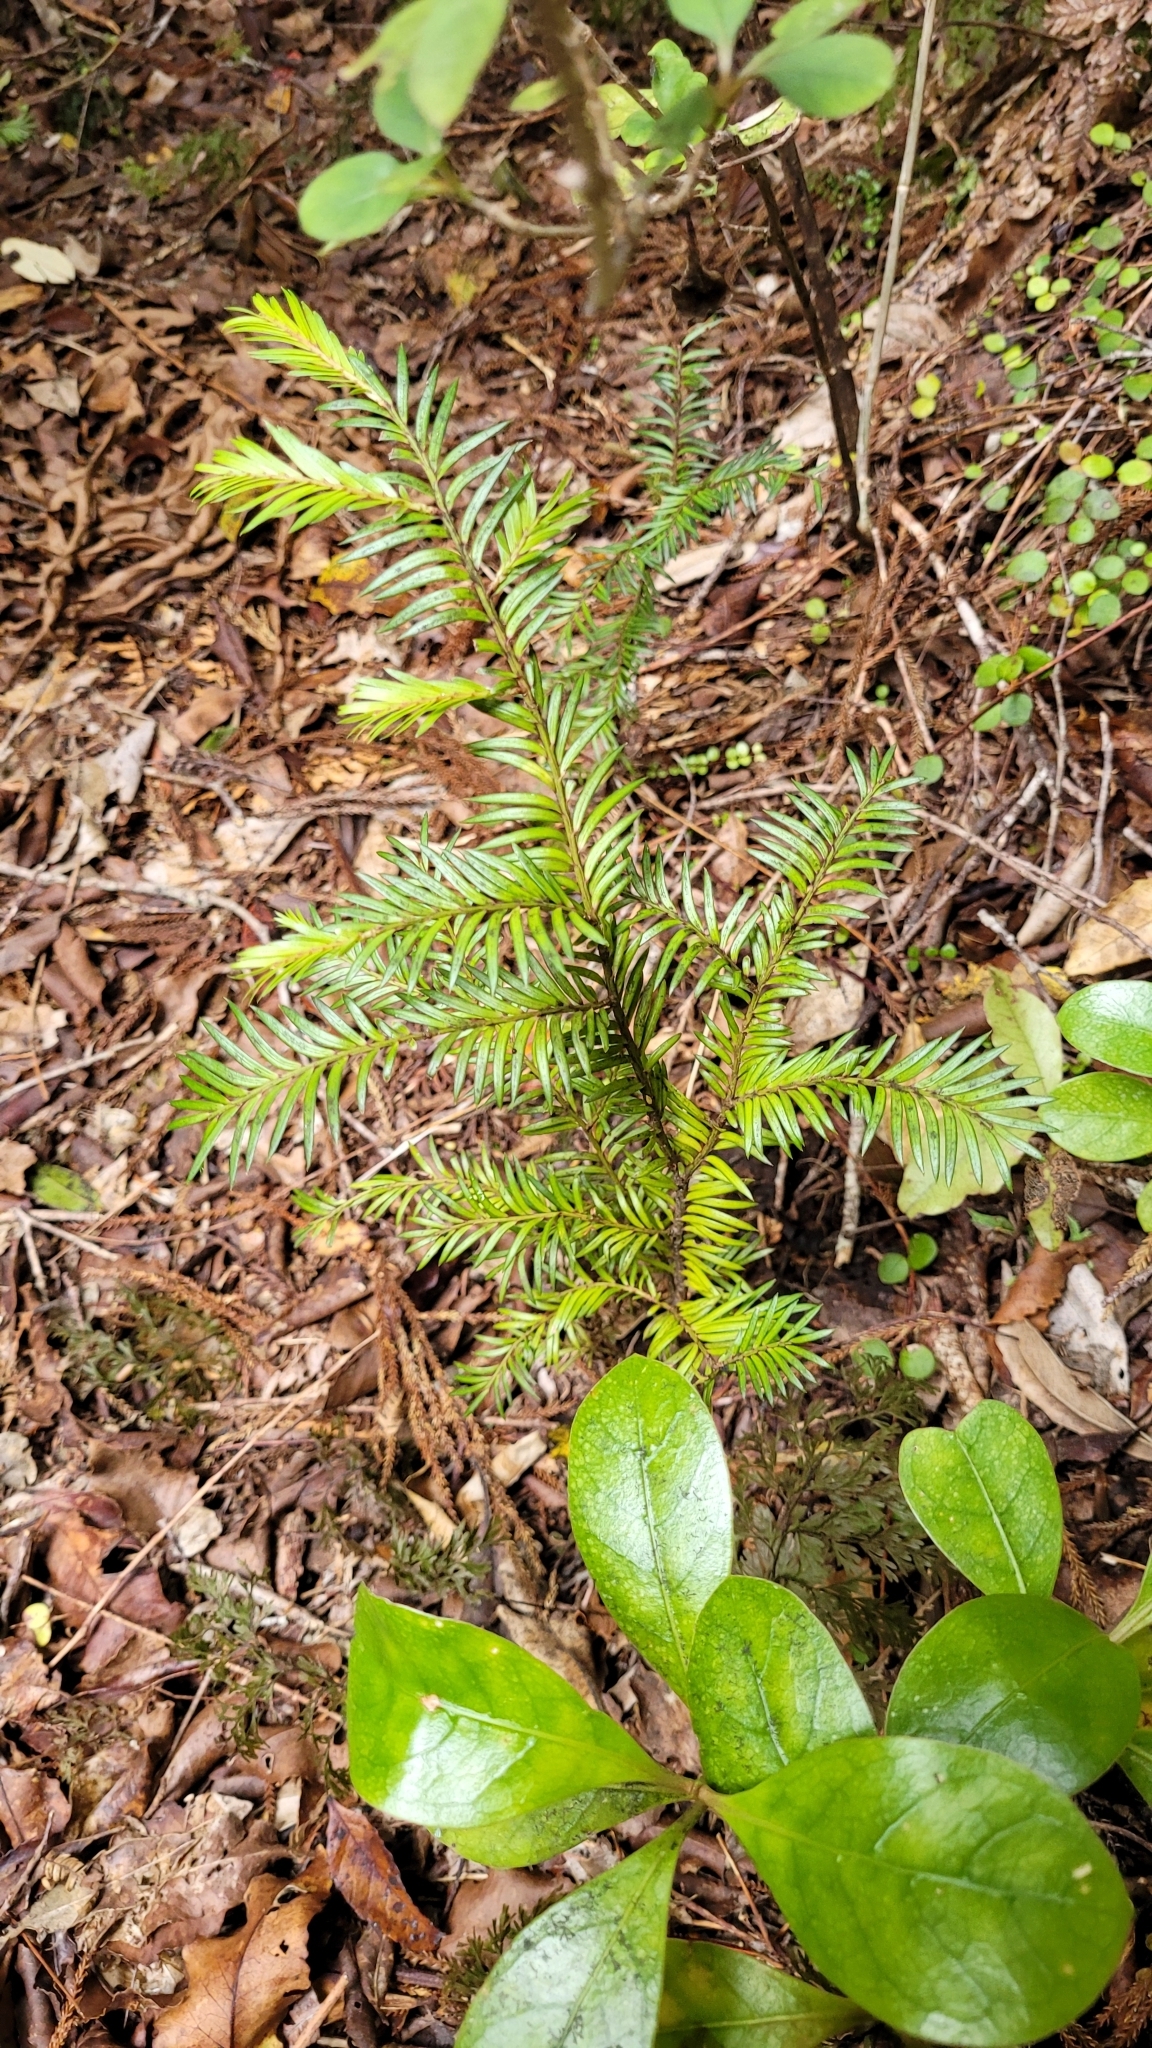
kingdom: Plantae
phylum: Tracheophyta
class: Pinopsida
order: Pinales
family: Podocarpaceae
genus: Prumnopitys
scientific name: Prumnopitys ferruginea
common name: Brown pine
